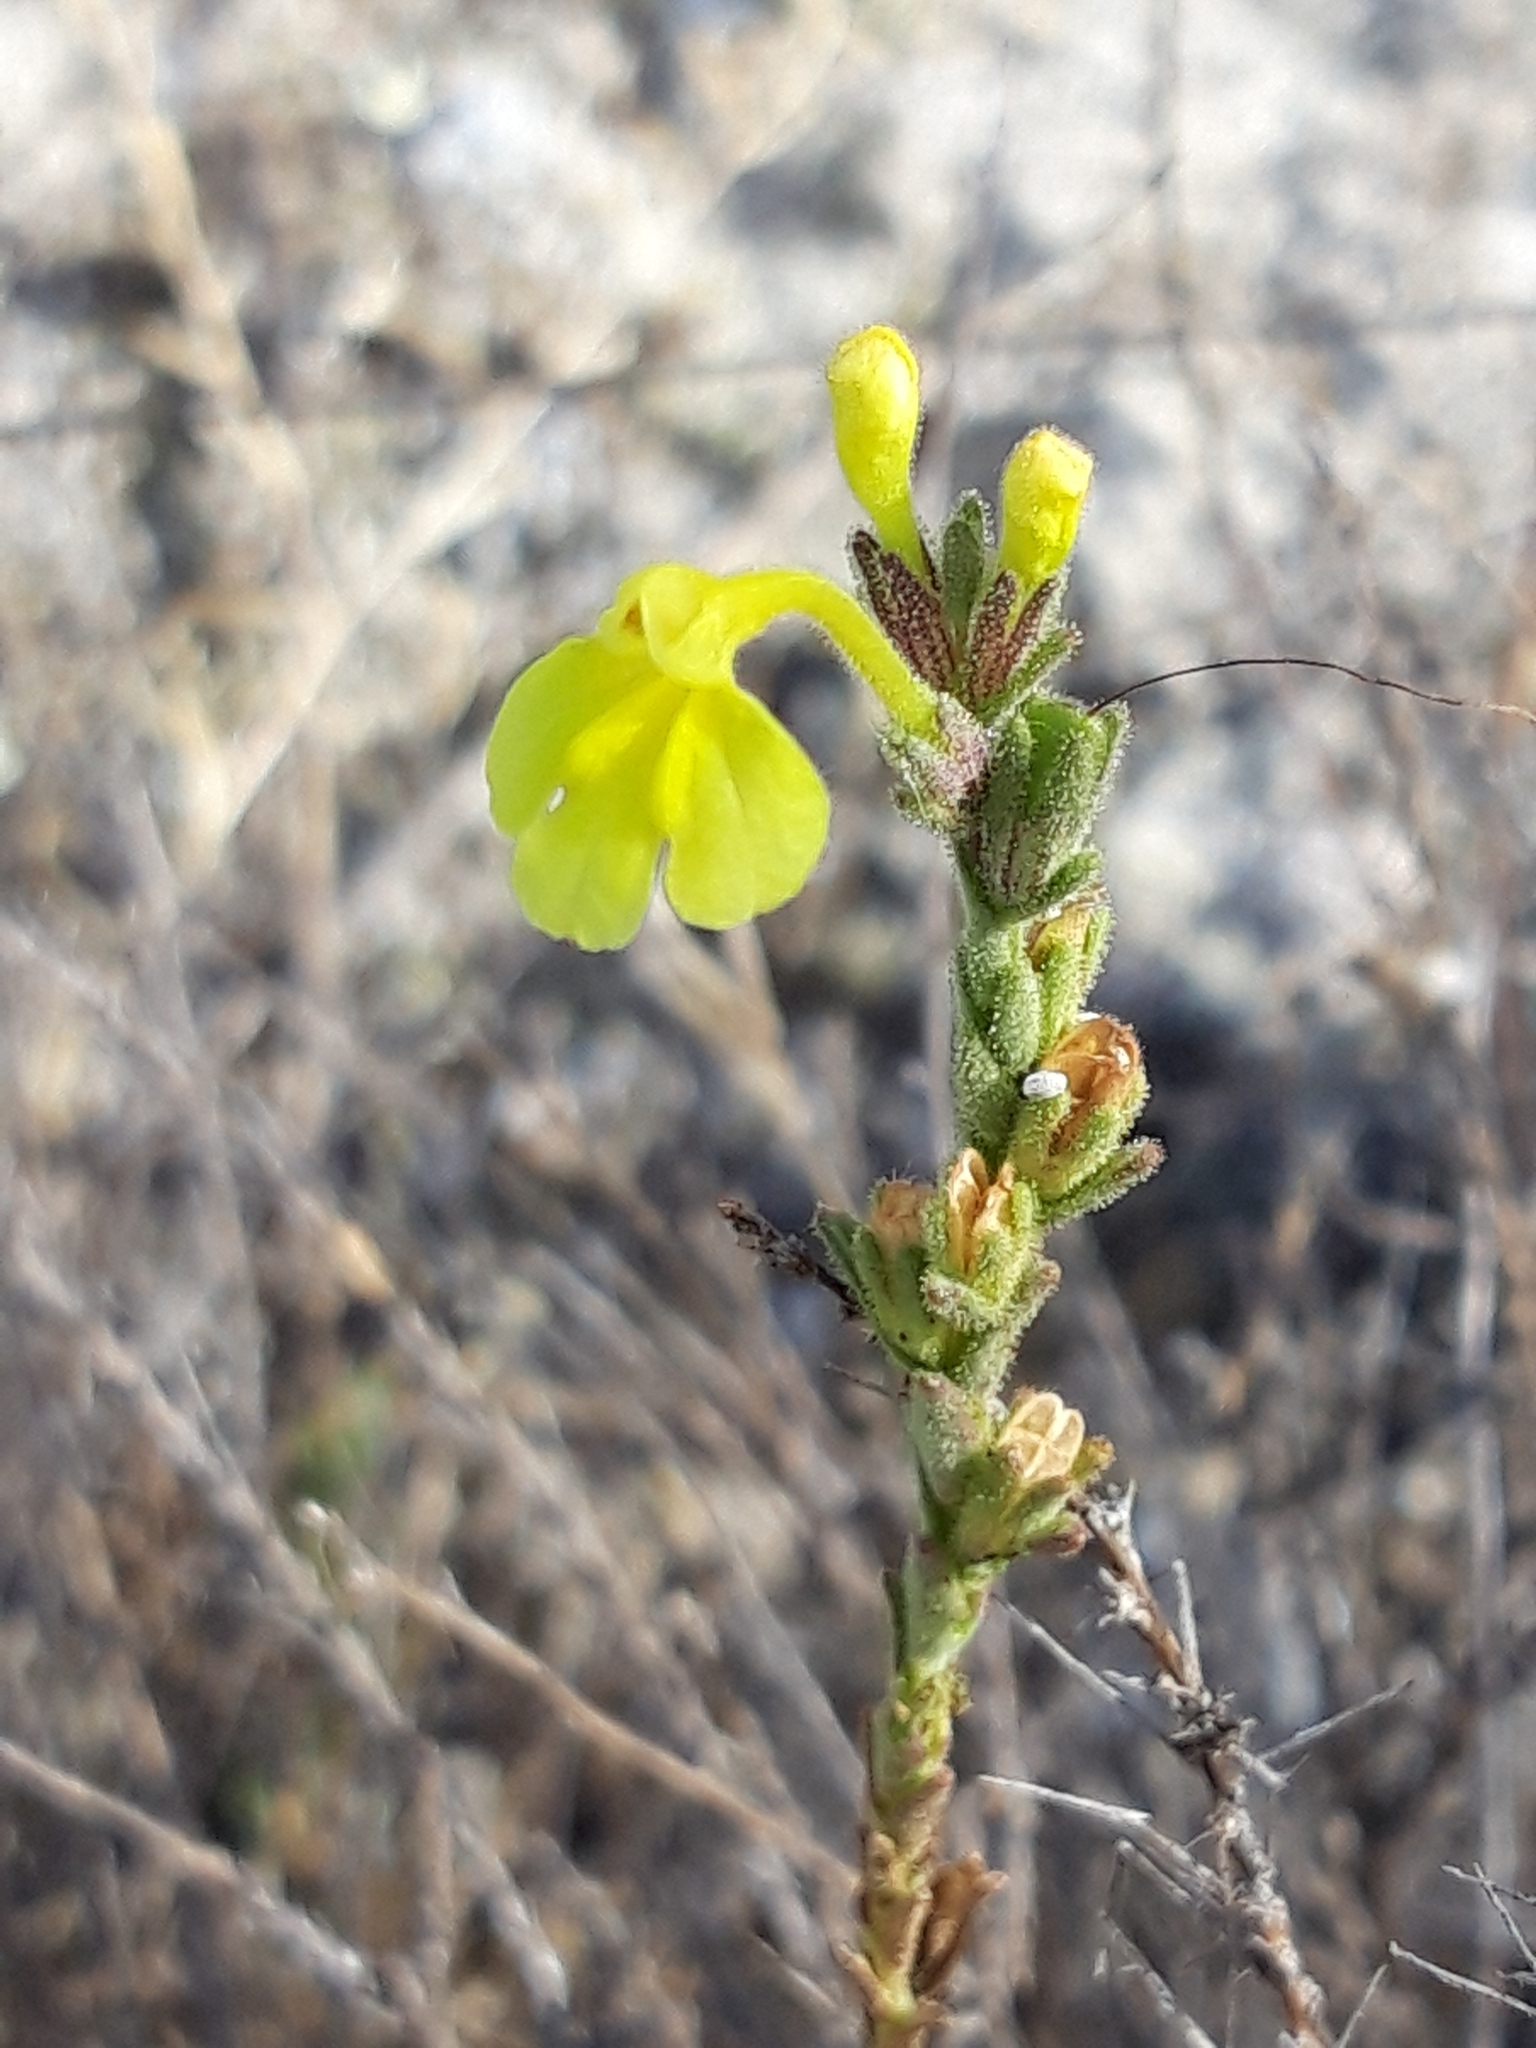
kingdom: Plantae
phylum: Tracheophyta
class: Magnoliopsida
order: Lamiales
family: Orobanchaceae
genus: Odontites
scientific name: Odontites longiflorus
